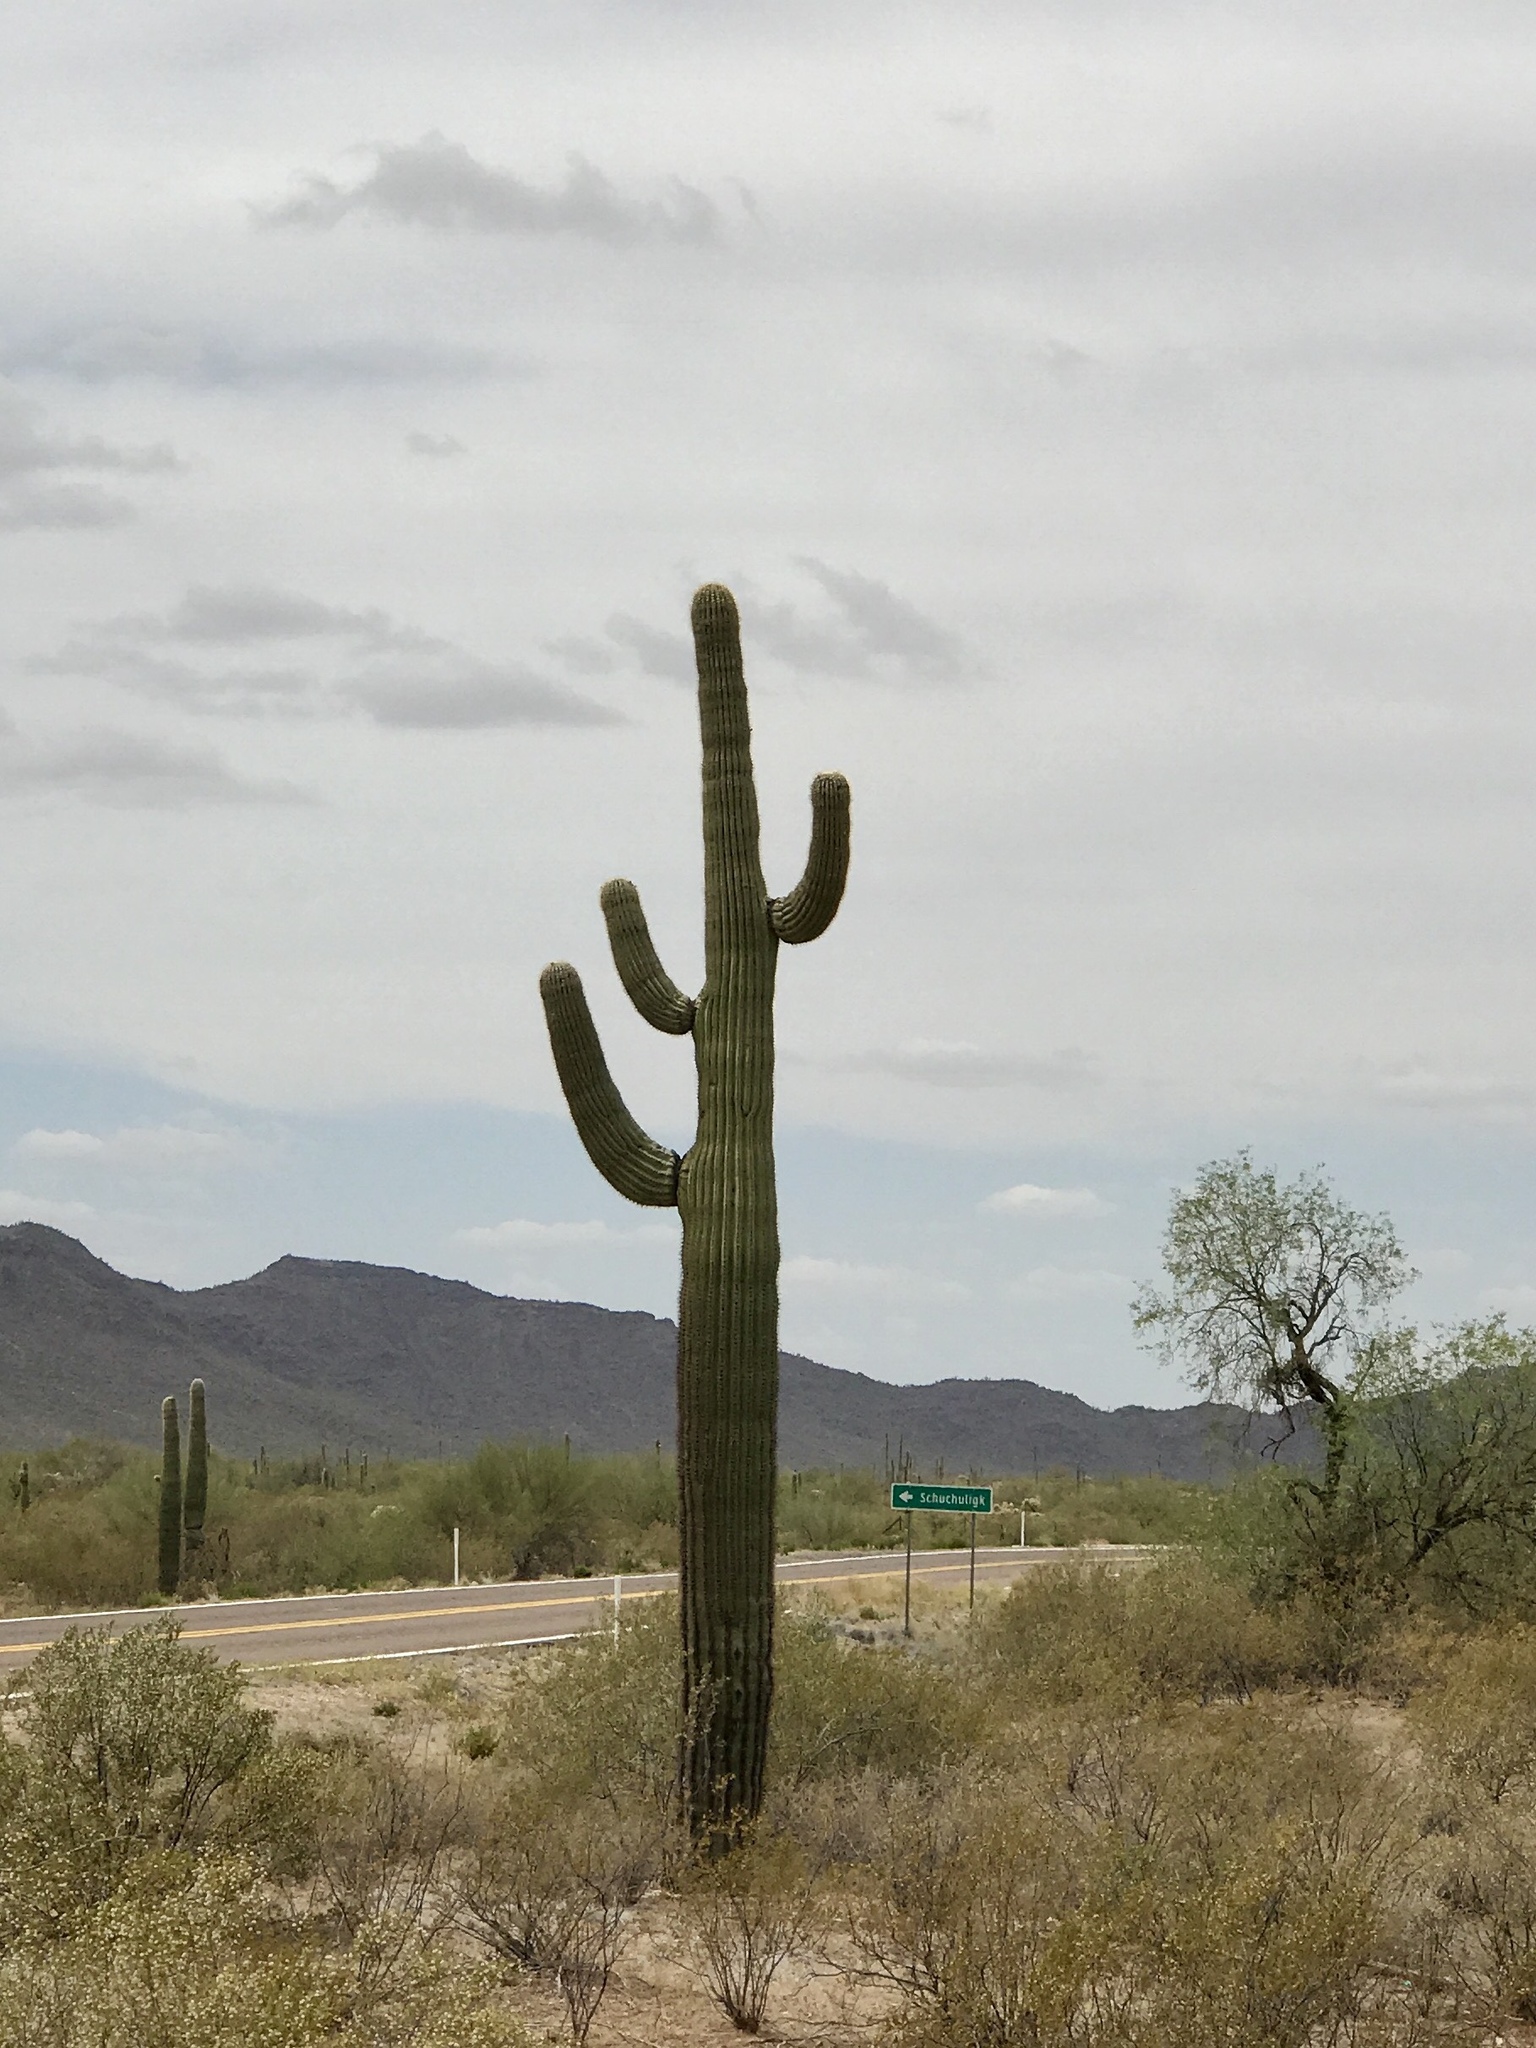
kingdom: Plantae
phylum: Tracheophyta
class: Magnoliopsida
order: Caryophyllales
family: Cactaceae
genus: Carnegiea
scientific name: Carnegiea gigantea
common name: Saguaro
